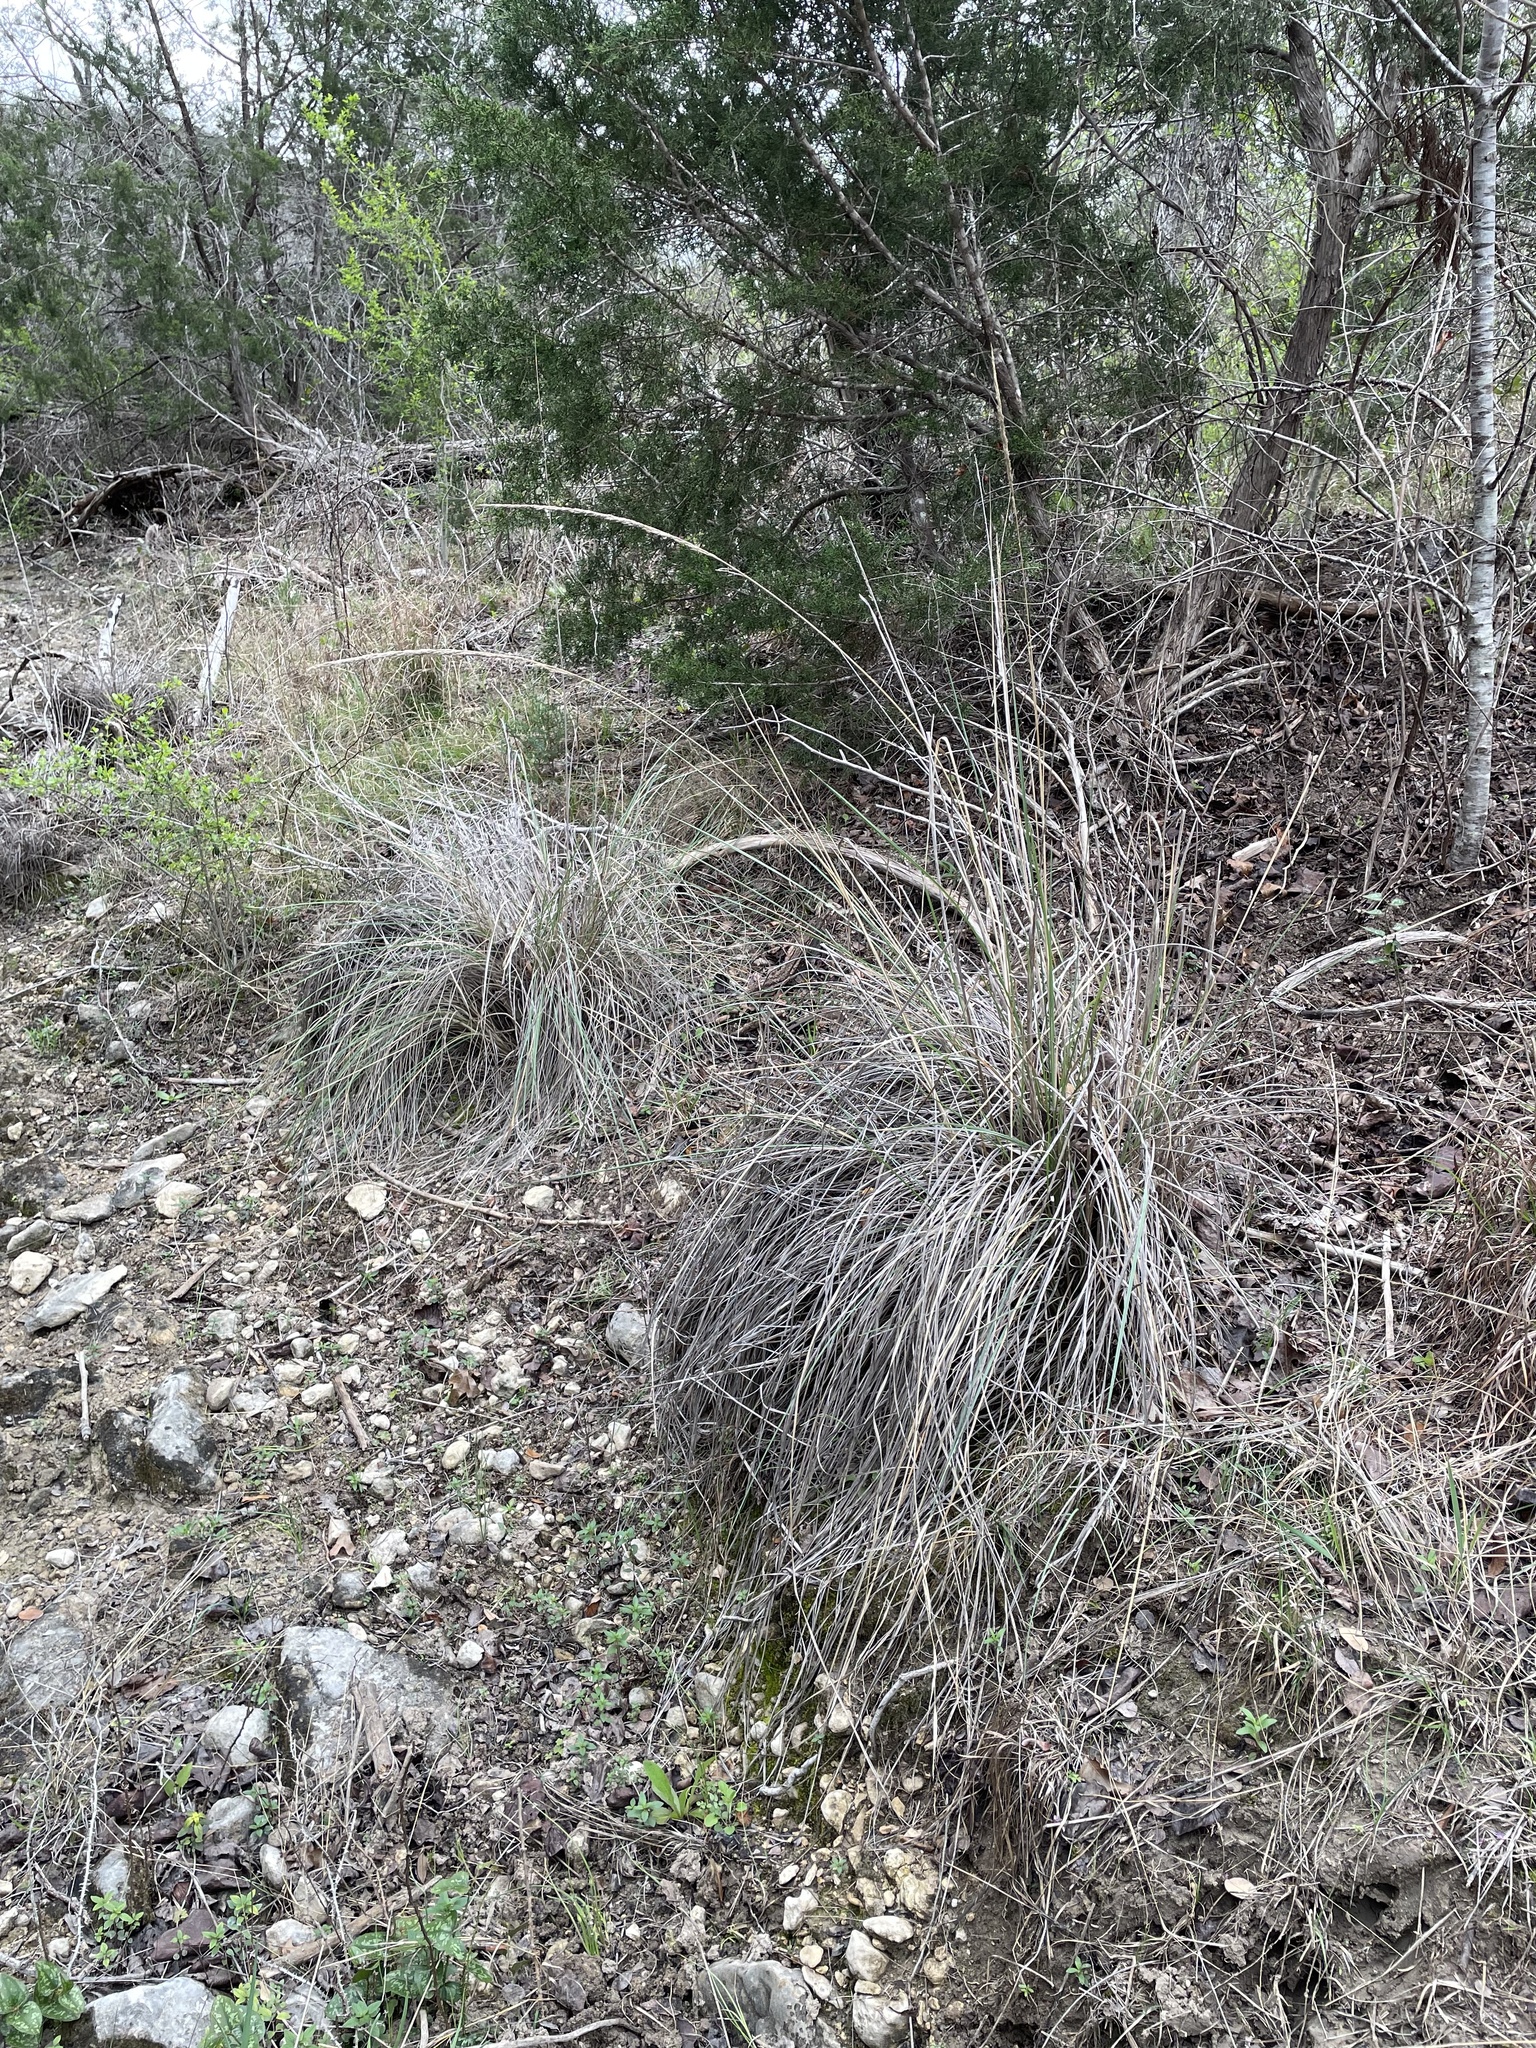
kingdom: Plantae
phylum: Tracheophyta
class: Liliopsida
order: Poales
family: Poaceae
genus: Muhlenbergia
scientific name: Muhlenbergia lindheimeri
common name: Lindheimer's muhly
